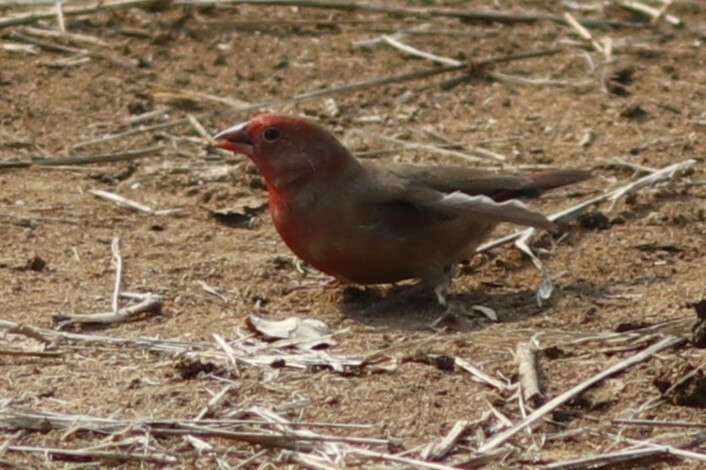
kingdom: Animalia
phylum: Chordata
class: Aves
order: Passeriformes
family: Estrildidae
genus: Lagonosticta
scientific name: Lagonosticta senegala
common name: Red-billed firefinch
